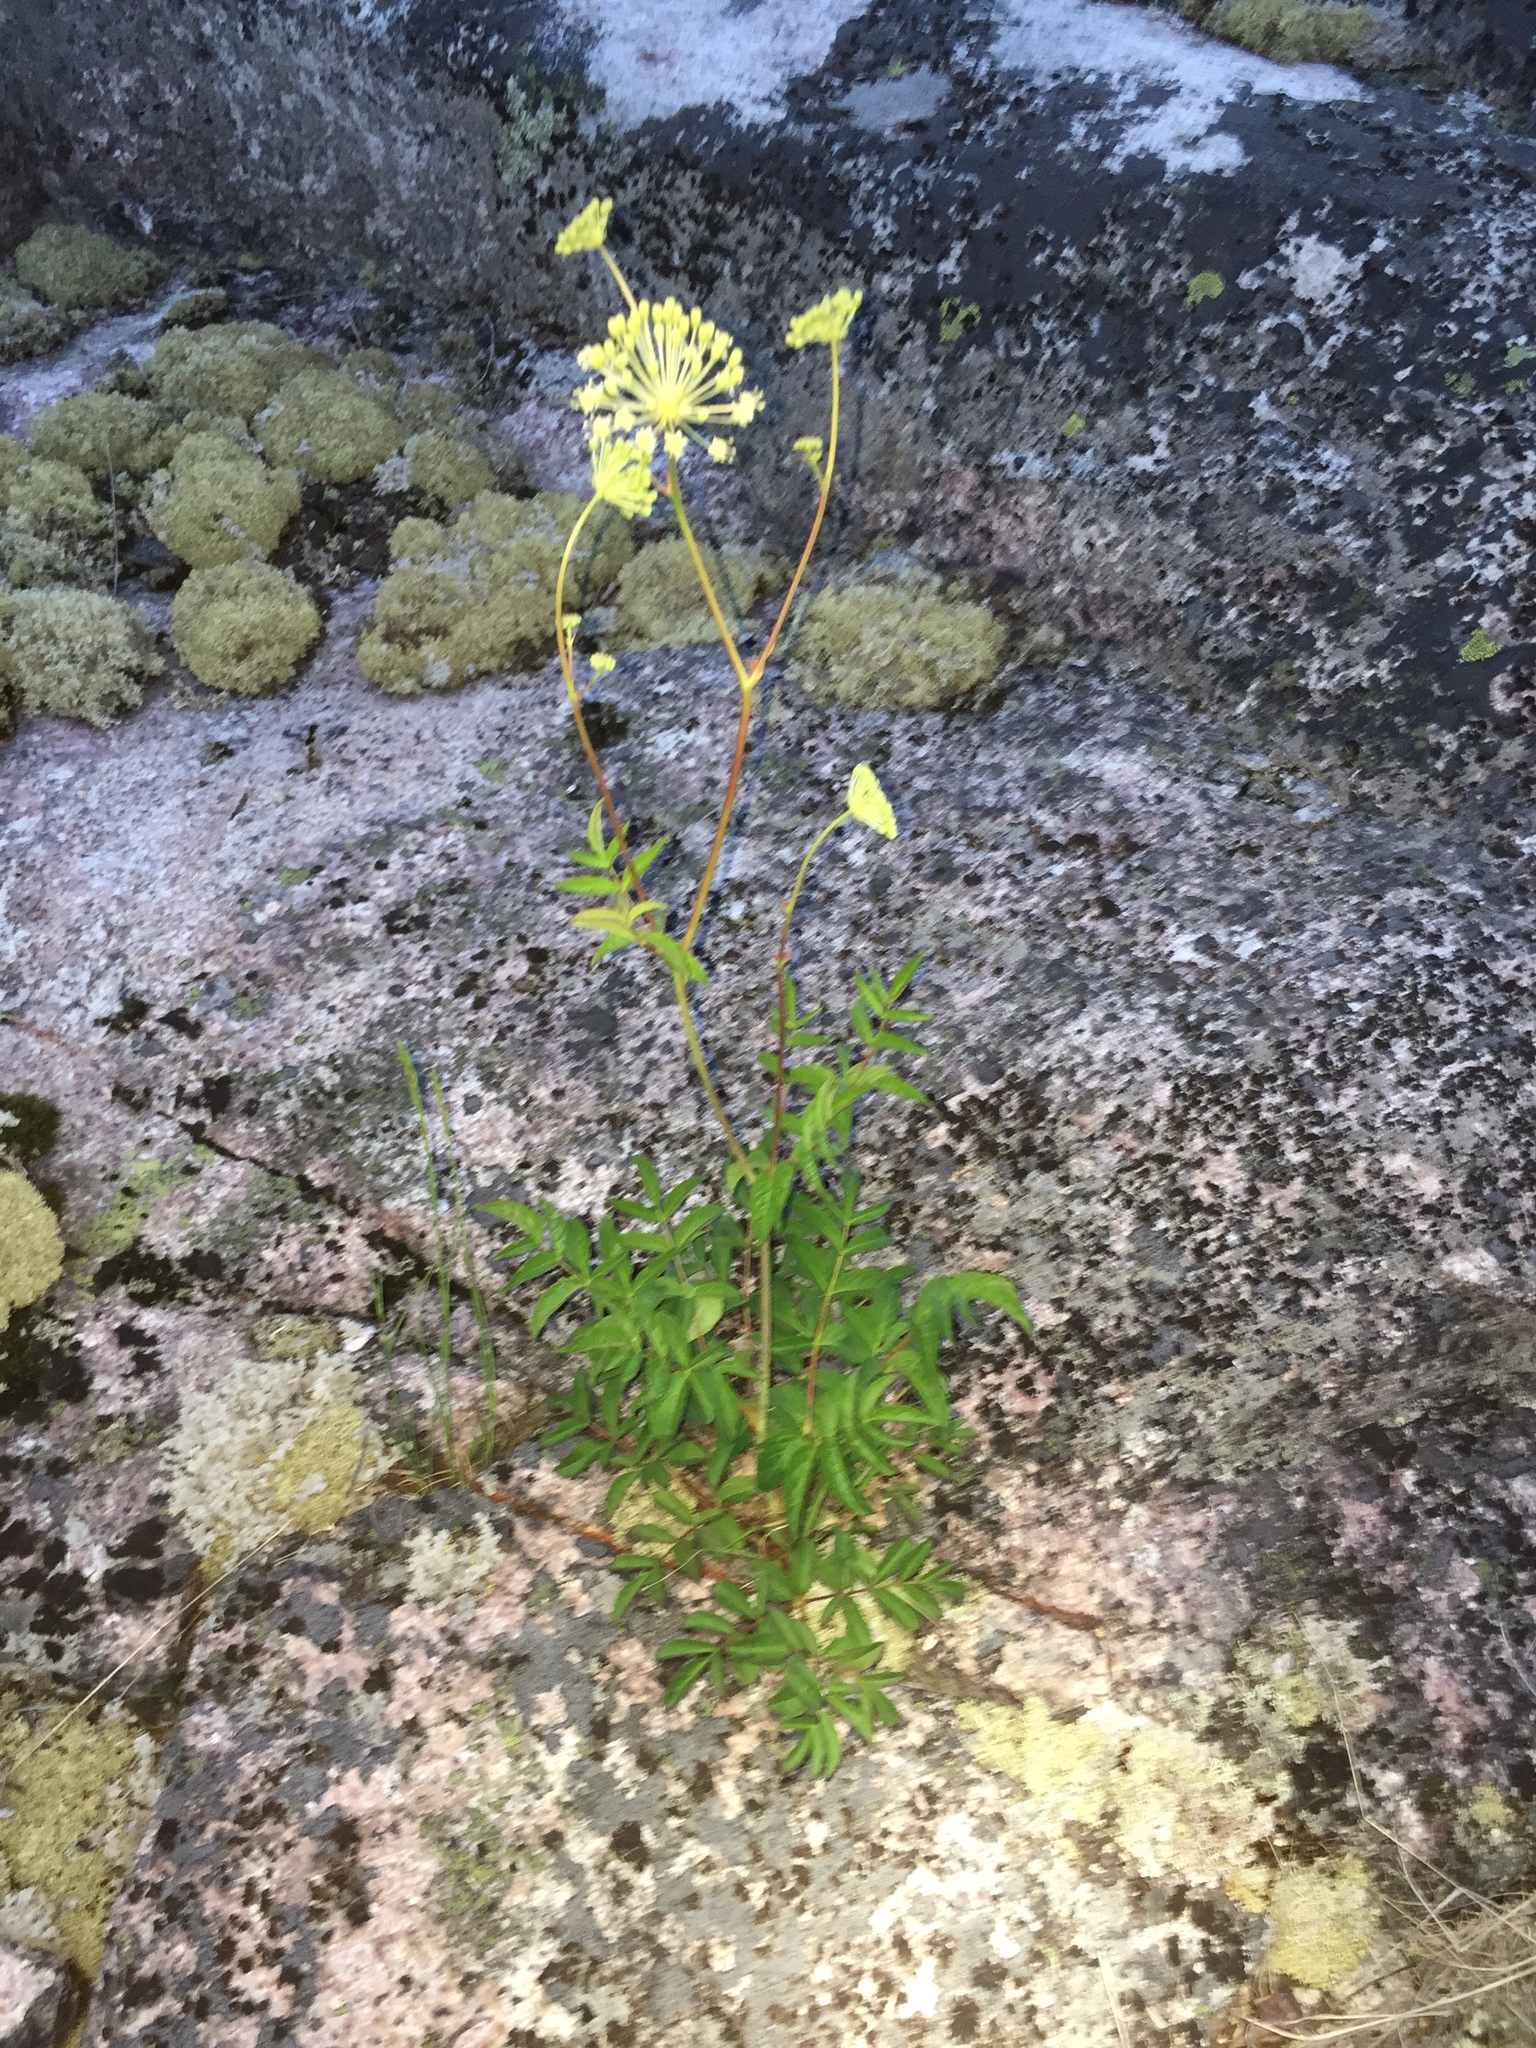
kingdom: Plantae
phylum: Tracheophyta
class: Magnoliopsida
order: Apiales
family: Araliaceae
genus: Aralia
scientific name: Aralia hispida
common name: Bristly sarsaparilla
